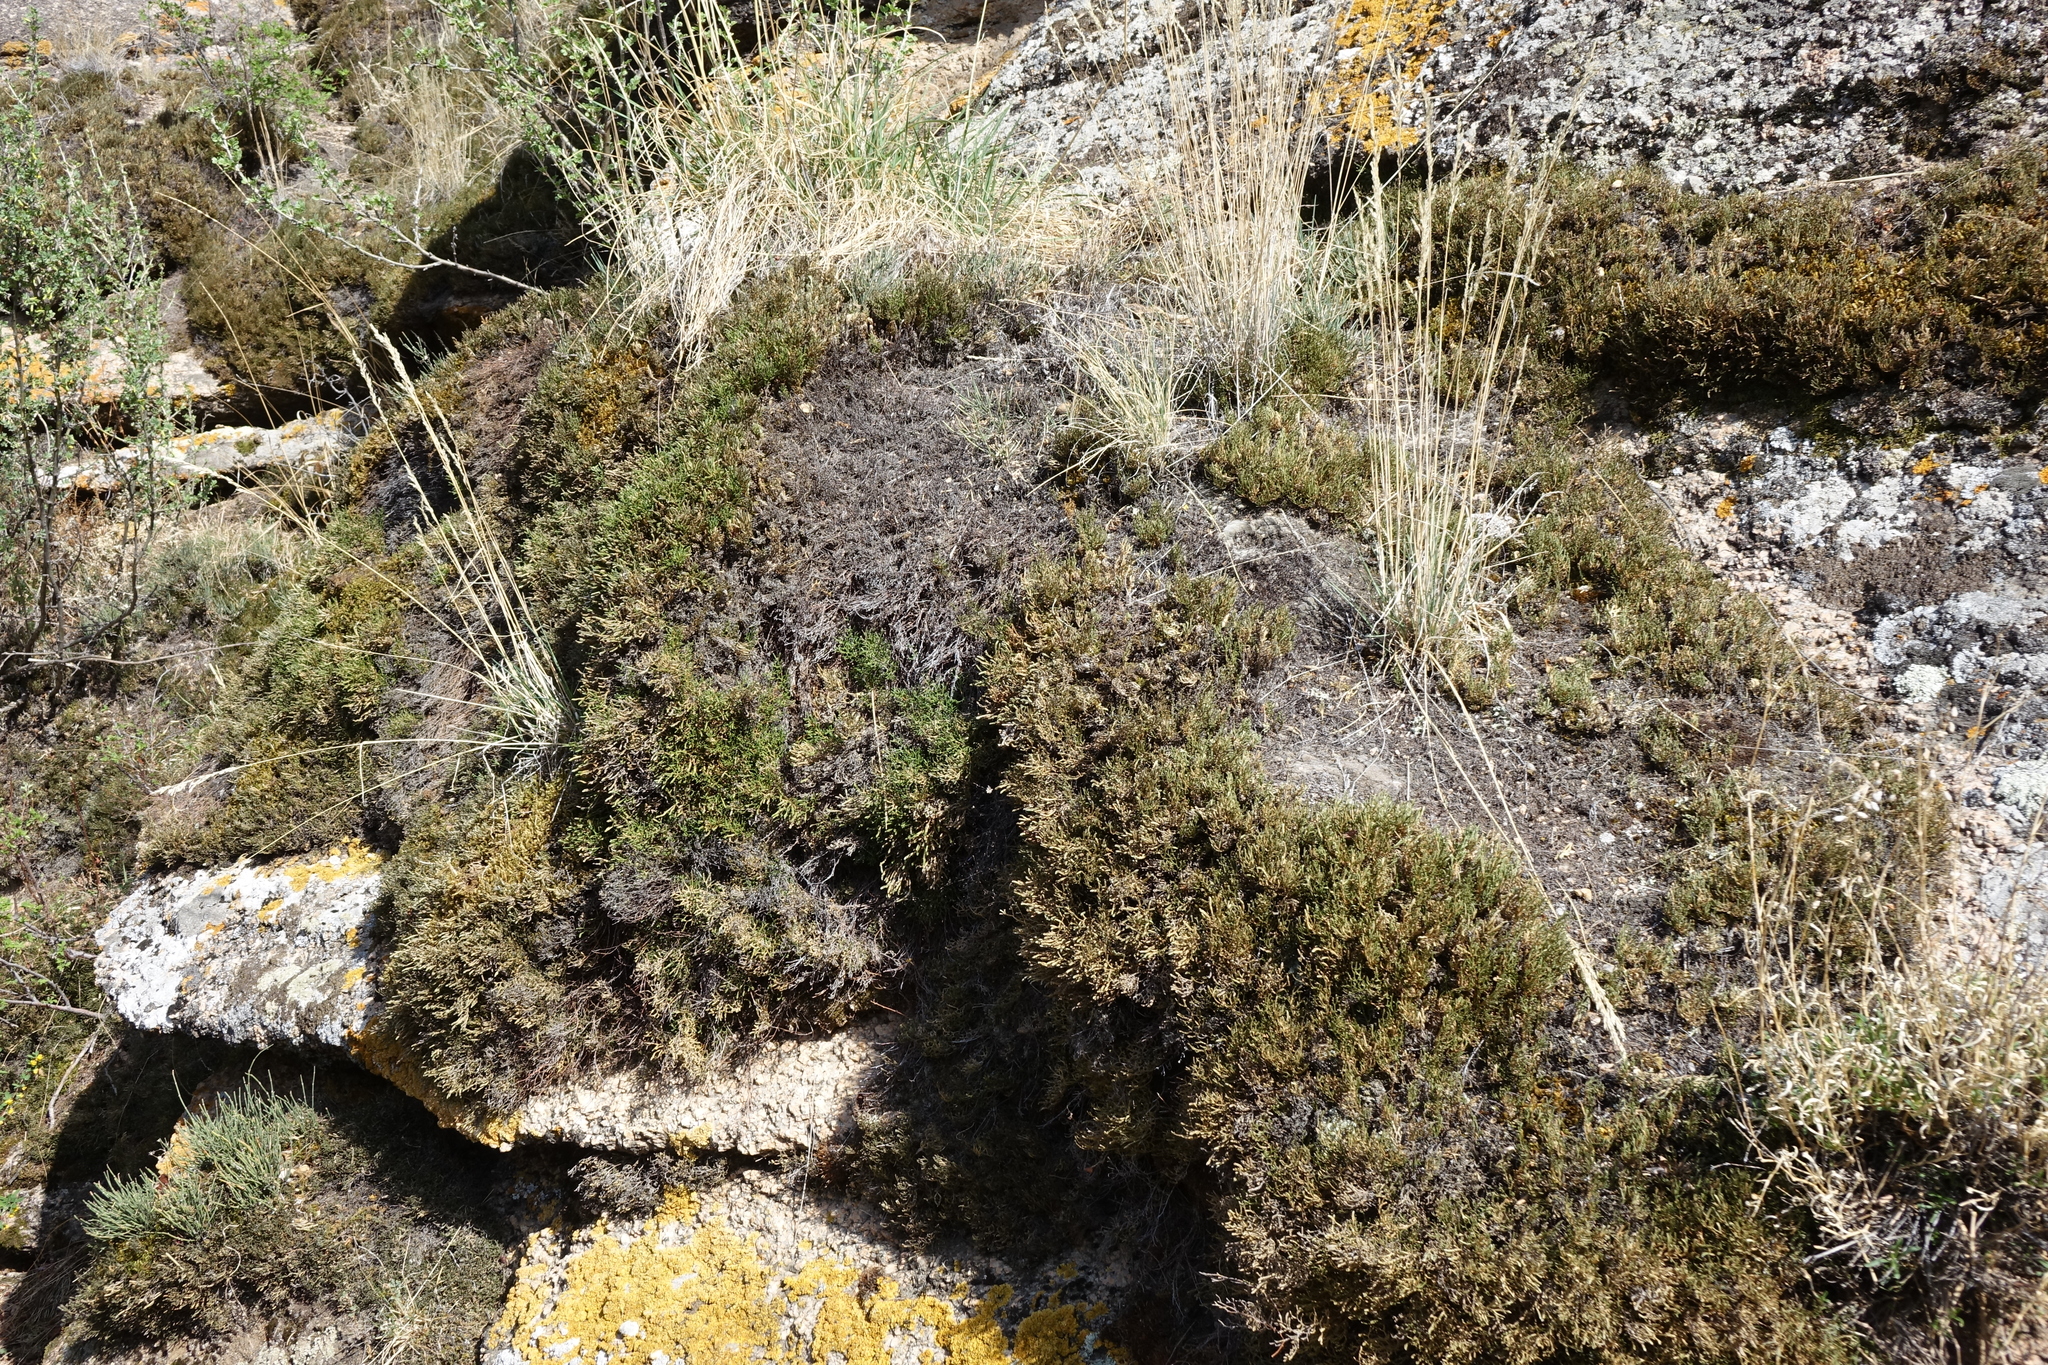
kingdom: Plantae
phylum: Tracheophyta
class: Lycopodiopsida
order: Selaginellales
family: Selaginellaceae
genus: Selaginella
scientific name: Selaginella sanguinolenta
